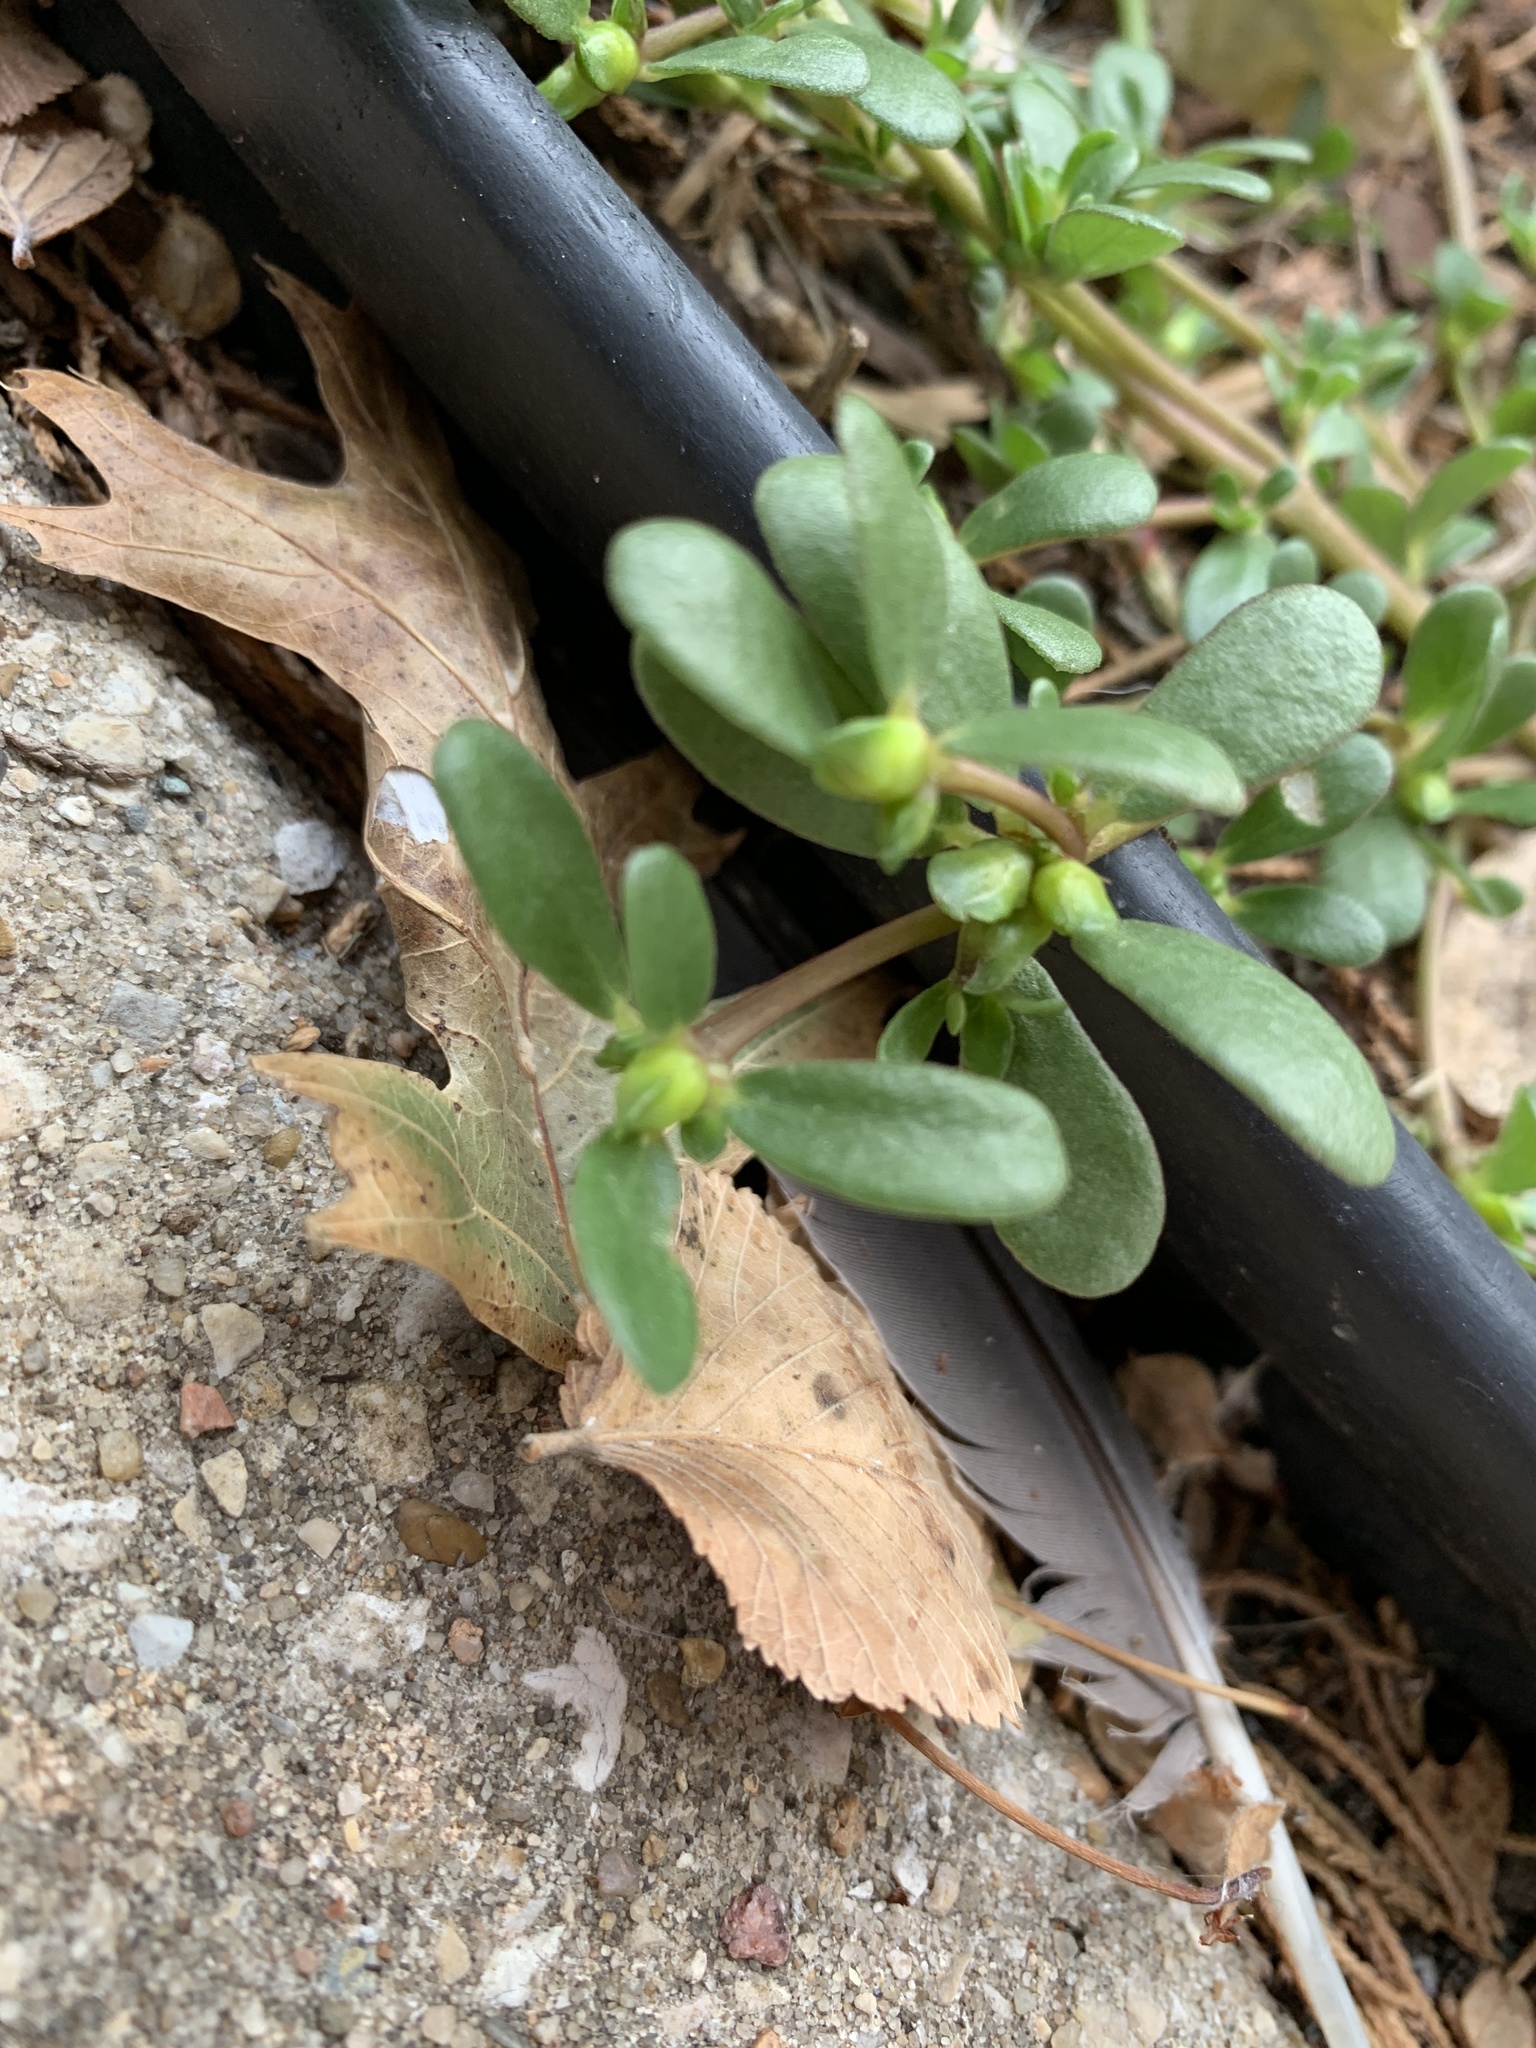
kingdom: Plantae
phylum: Tracheophyta
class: Magnoliopsida
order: Caryophyllales
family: Portulacaceae
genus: Portulaca
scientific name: Portulaca oleracea
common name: Common purslane
